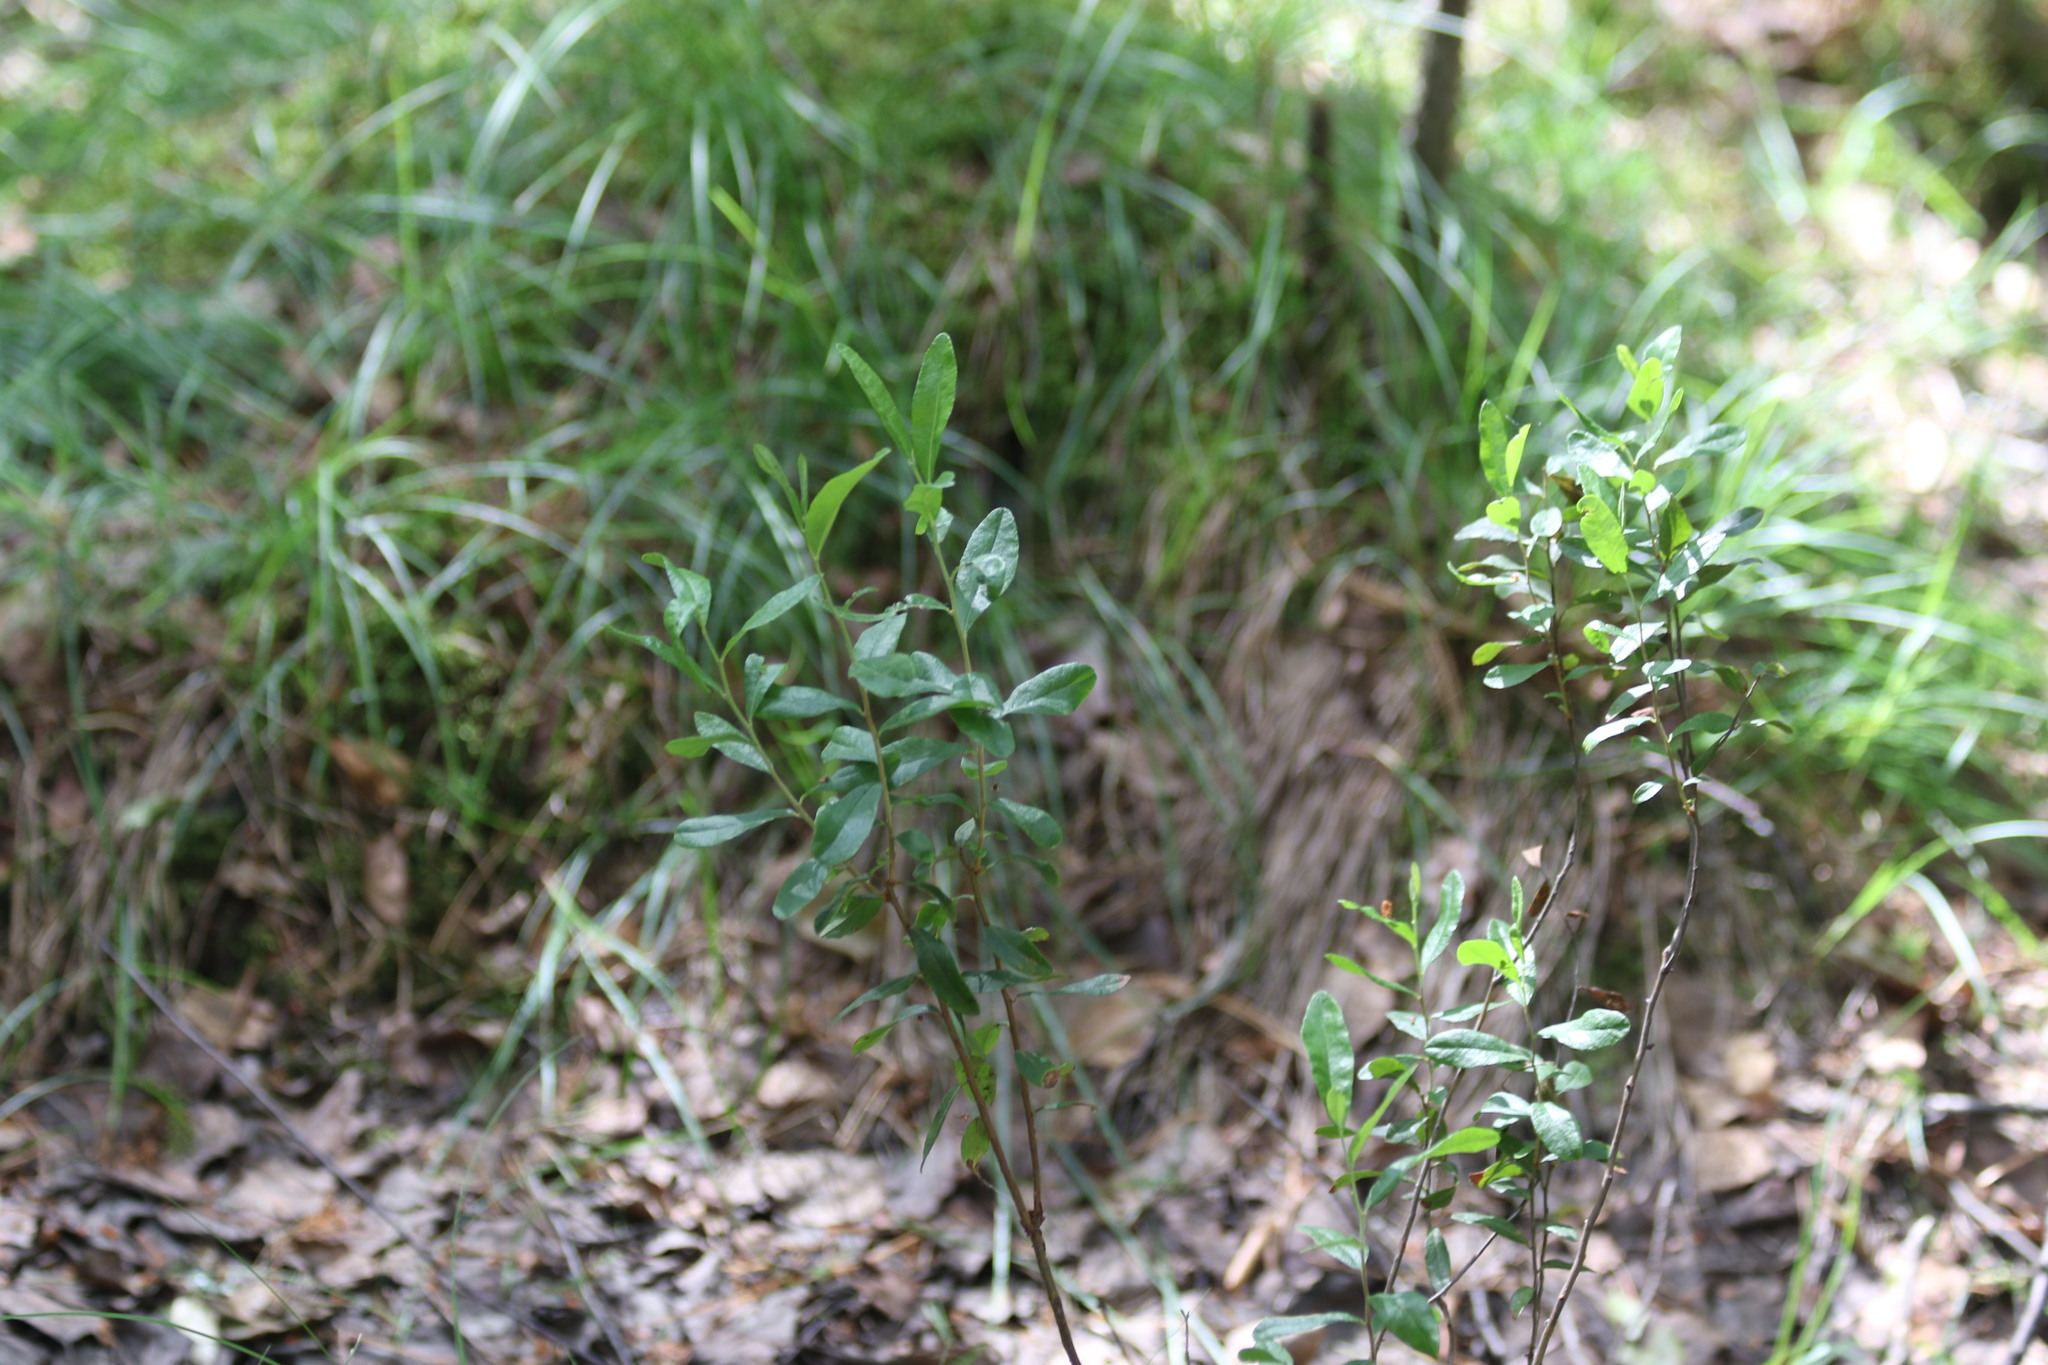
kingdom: Plantae
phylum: Tracheophyta
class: Magnoliopsida
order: Ericales
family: Ericaceae
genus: Chamaedaphne
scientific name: Chamaedaphne calyculata
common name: Leatherleaf
